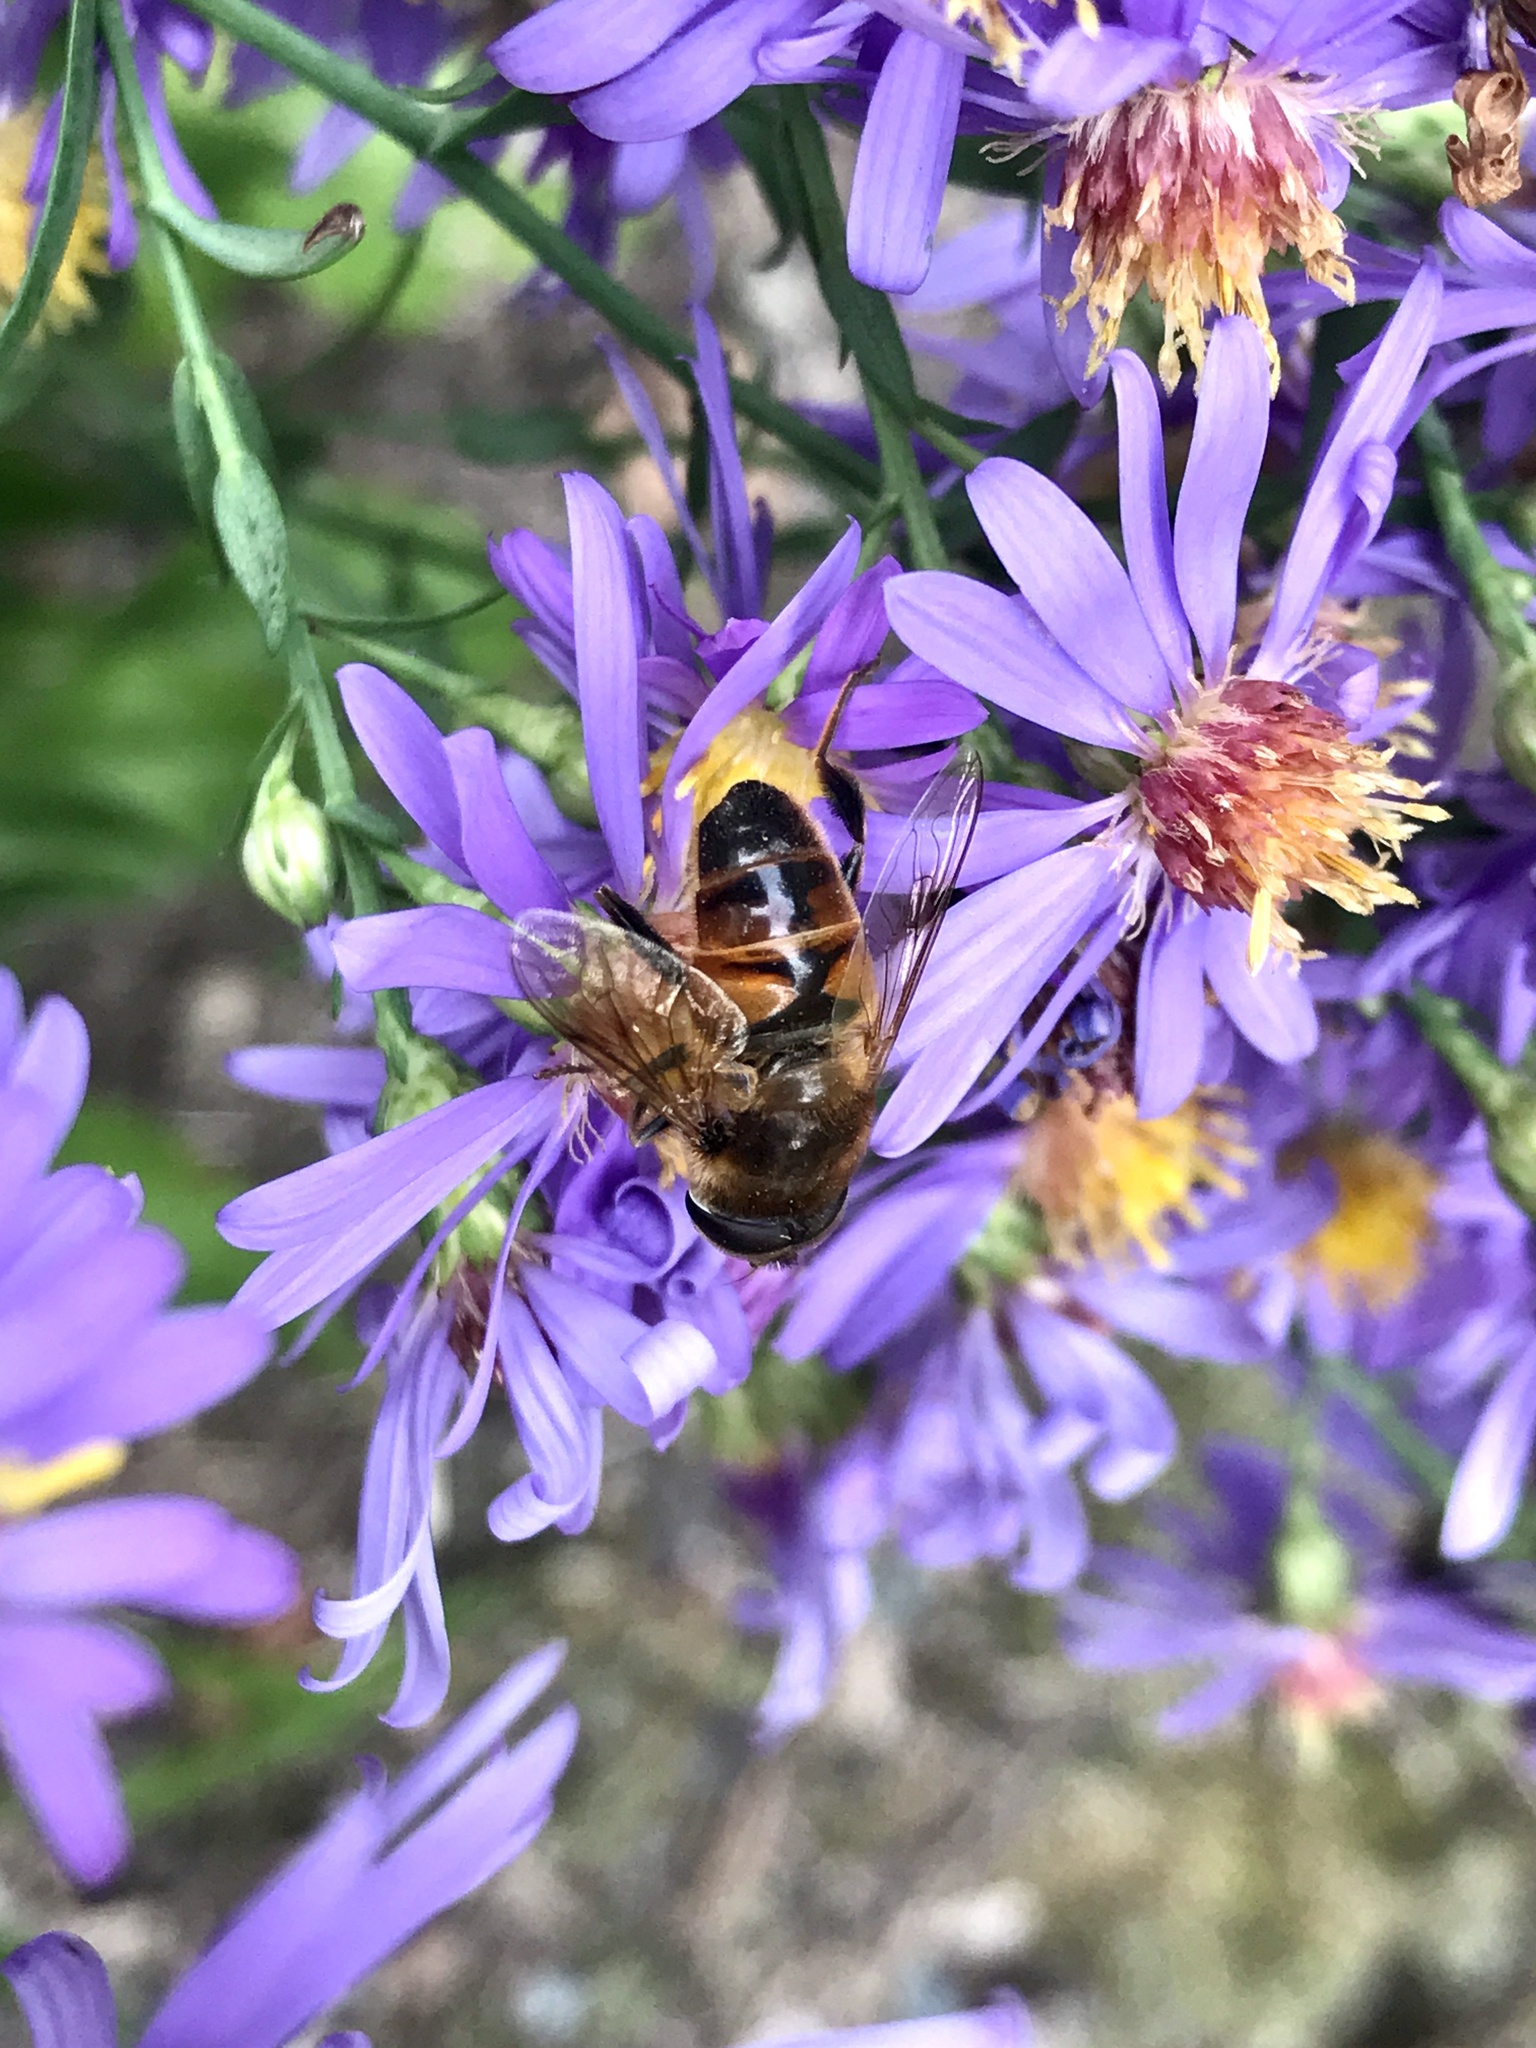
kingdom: Animalia
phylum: Arthropoda
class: Insecta
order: Diptera
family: Syrphidae
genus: Eristalis
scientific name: Eristalis tenax
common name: Drone fly
